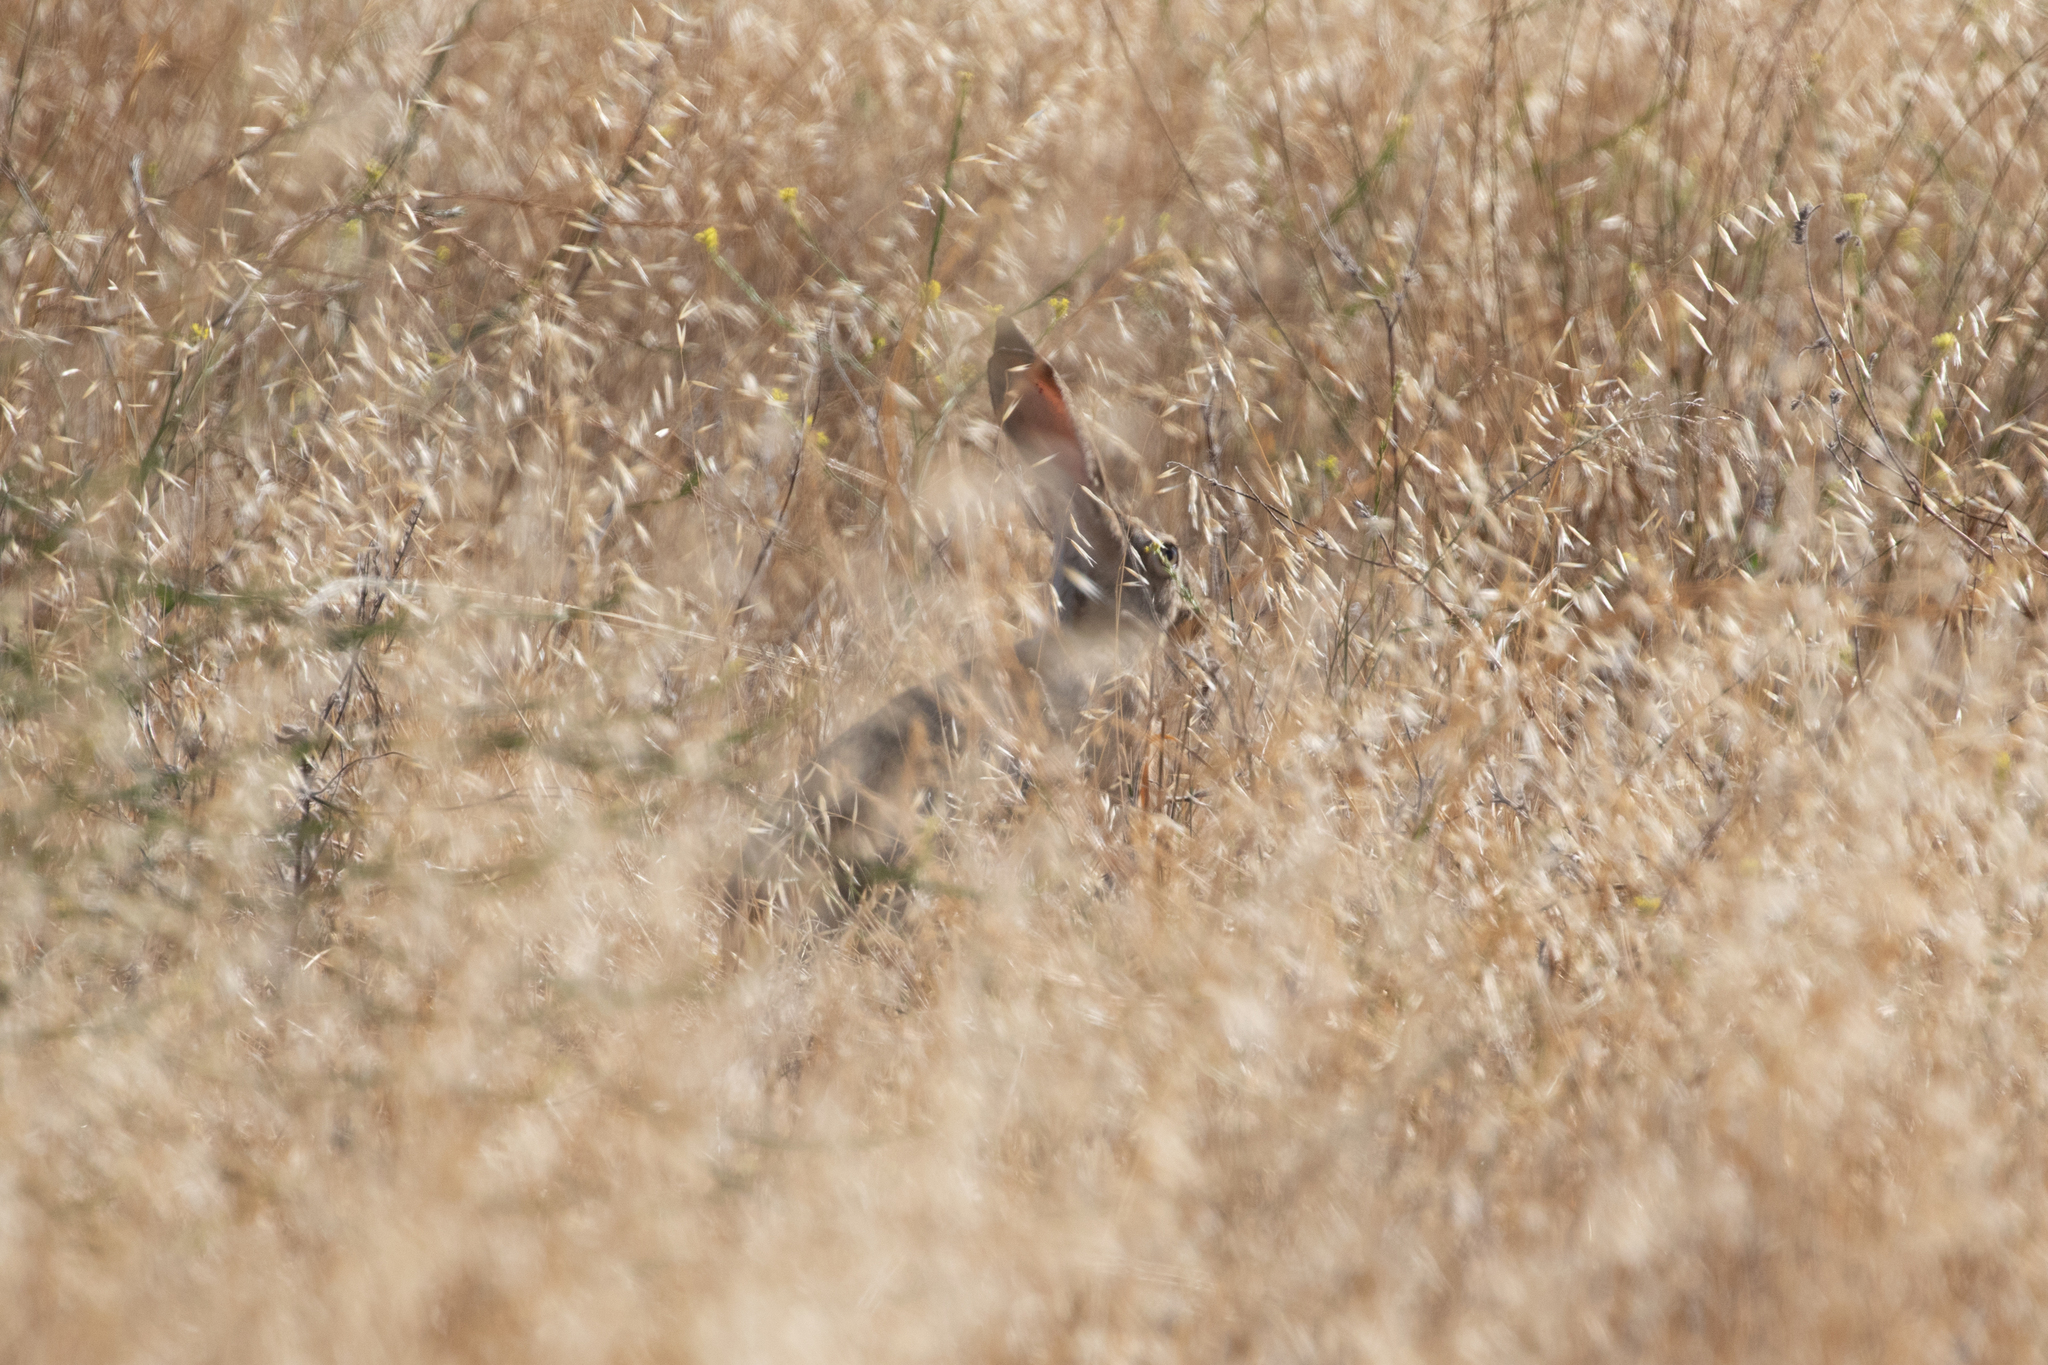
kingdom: Animalia
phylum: Chordata
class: Mammalia
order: Lagomorpha
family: Leporidae
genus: Lepus
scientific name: Lepus californicus
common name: Black-tailed jackrabbit
